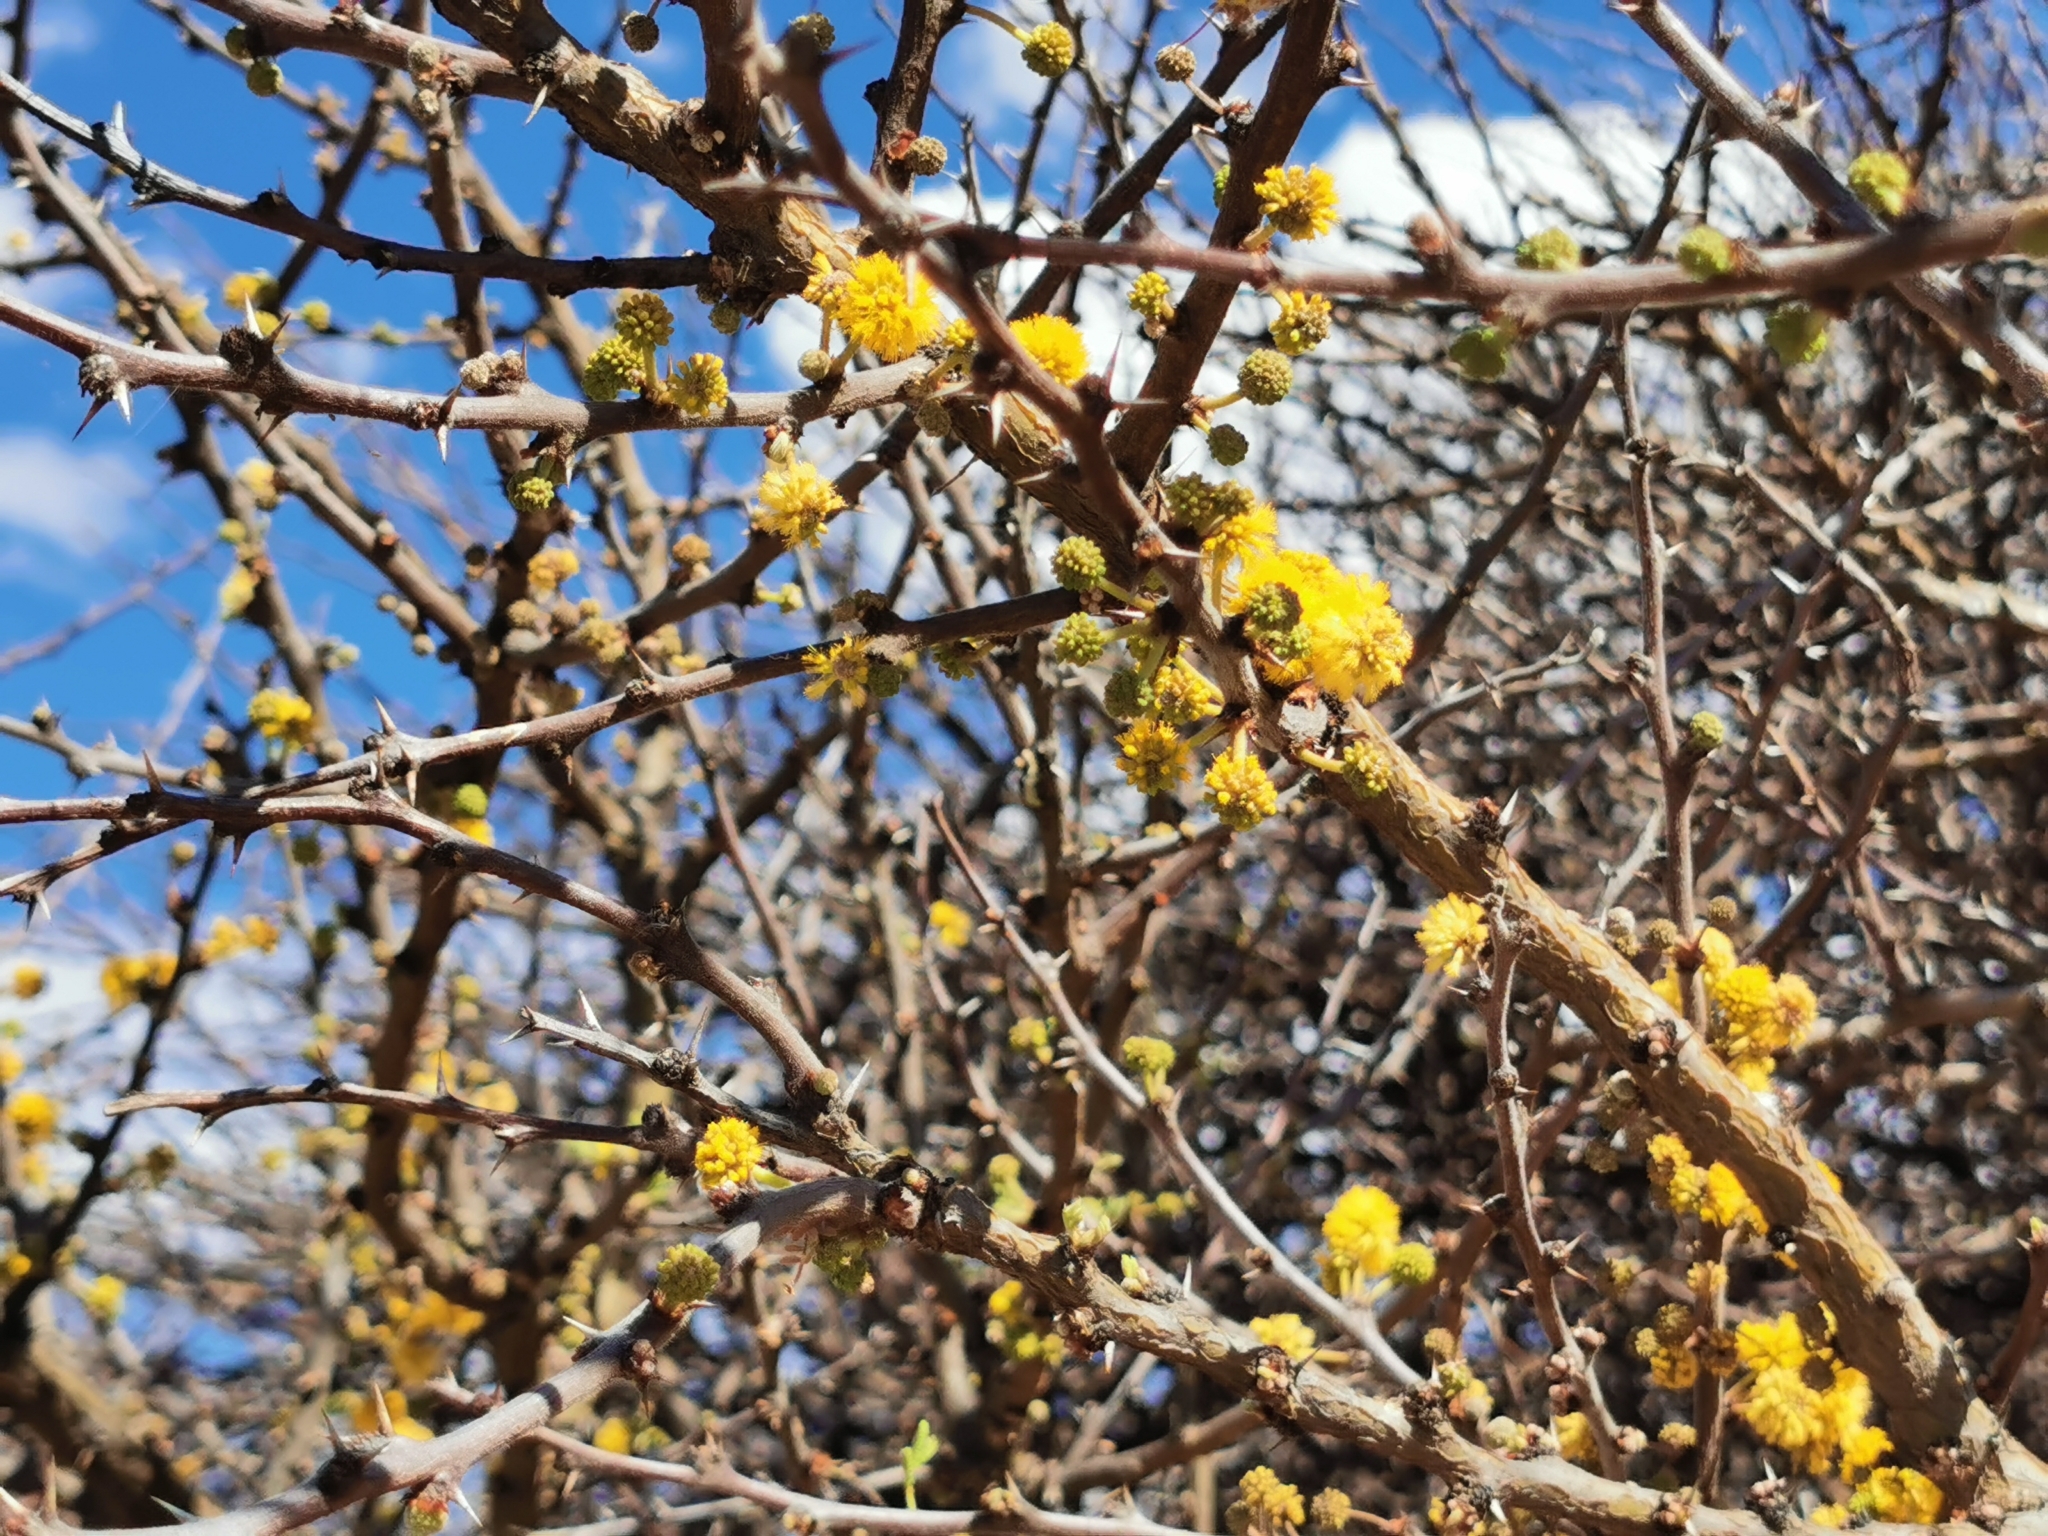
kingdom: Plantae
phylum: Tracheophyta
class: Magnoliopsida
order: Fabales
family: Fabaceae
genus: Vachellia
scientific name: Vachellia schaffneri
